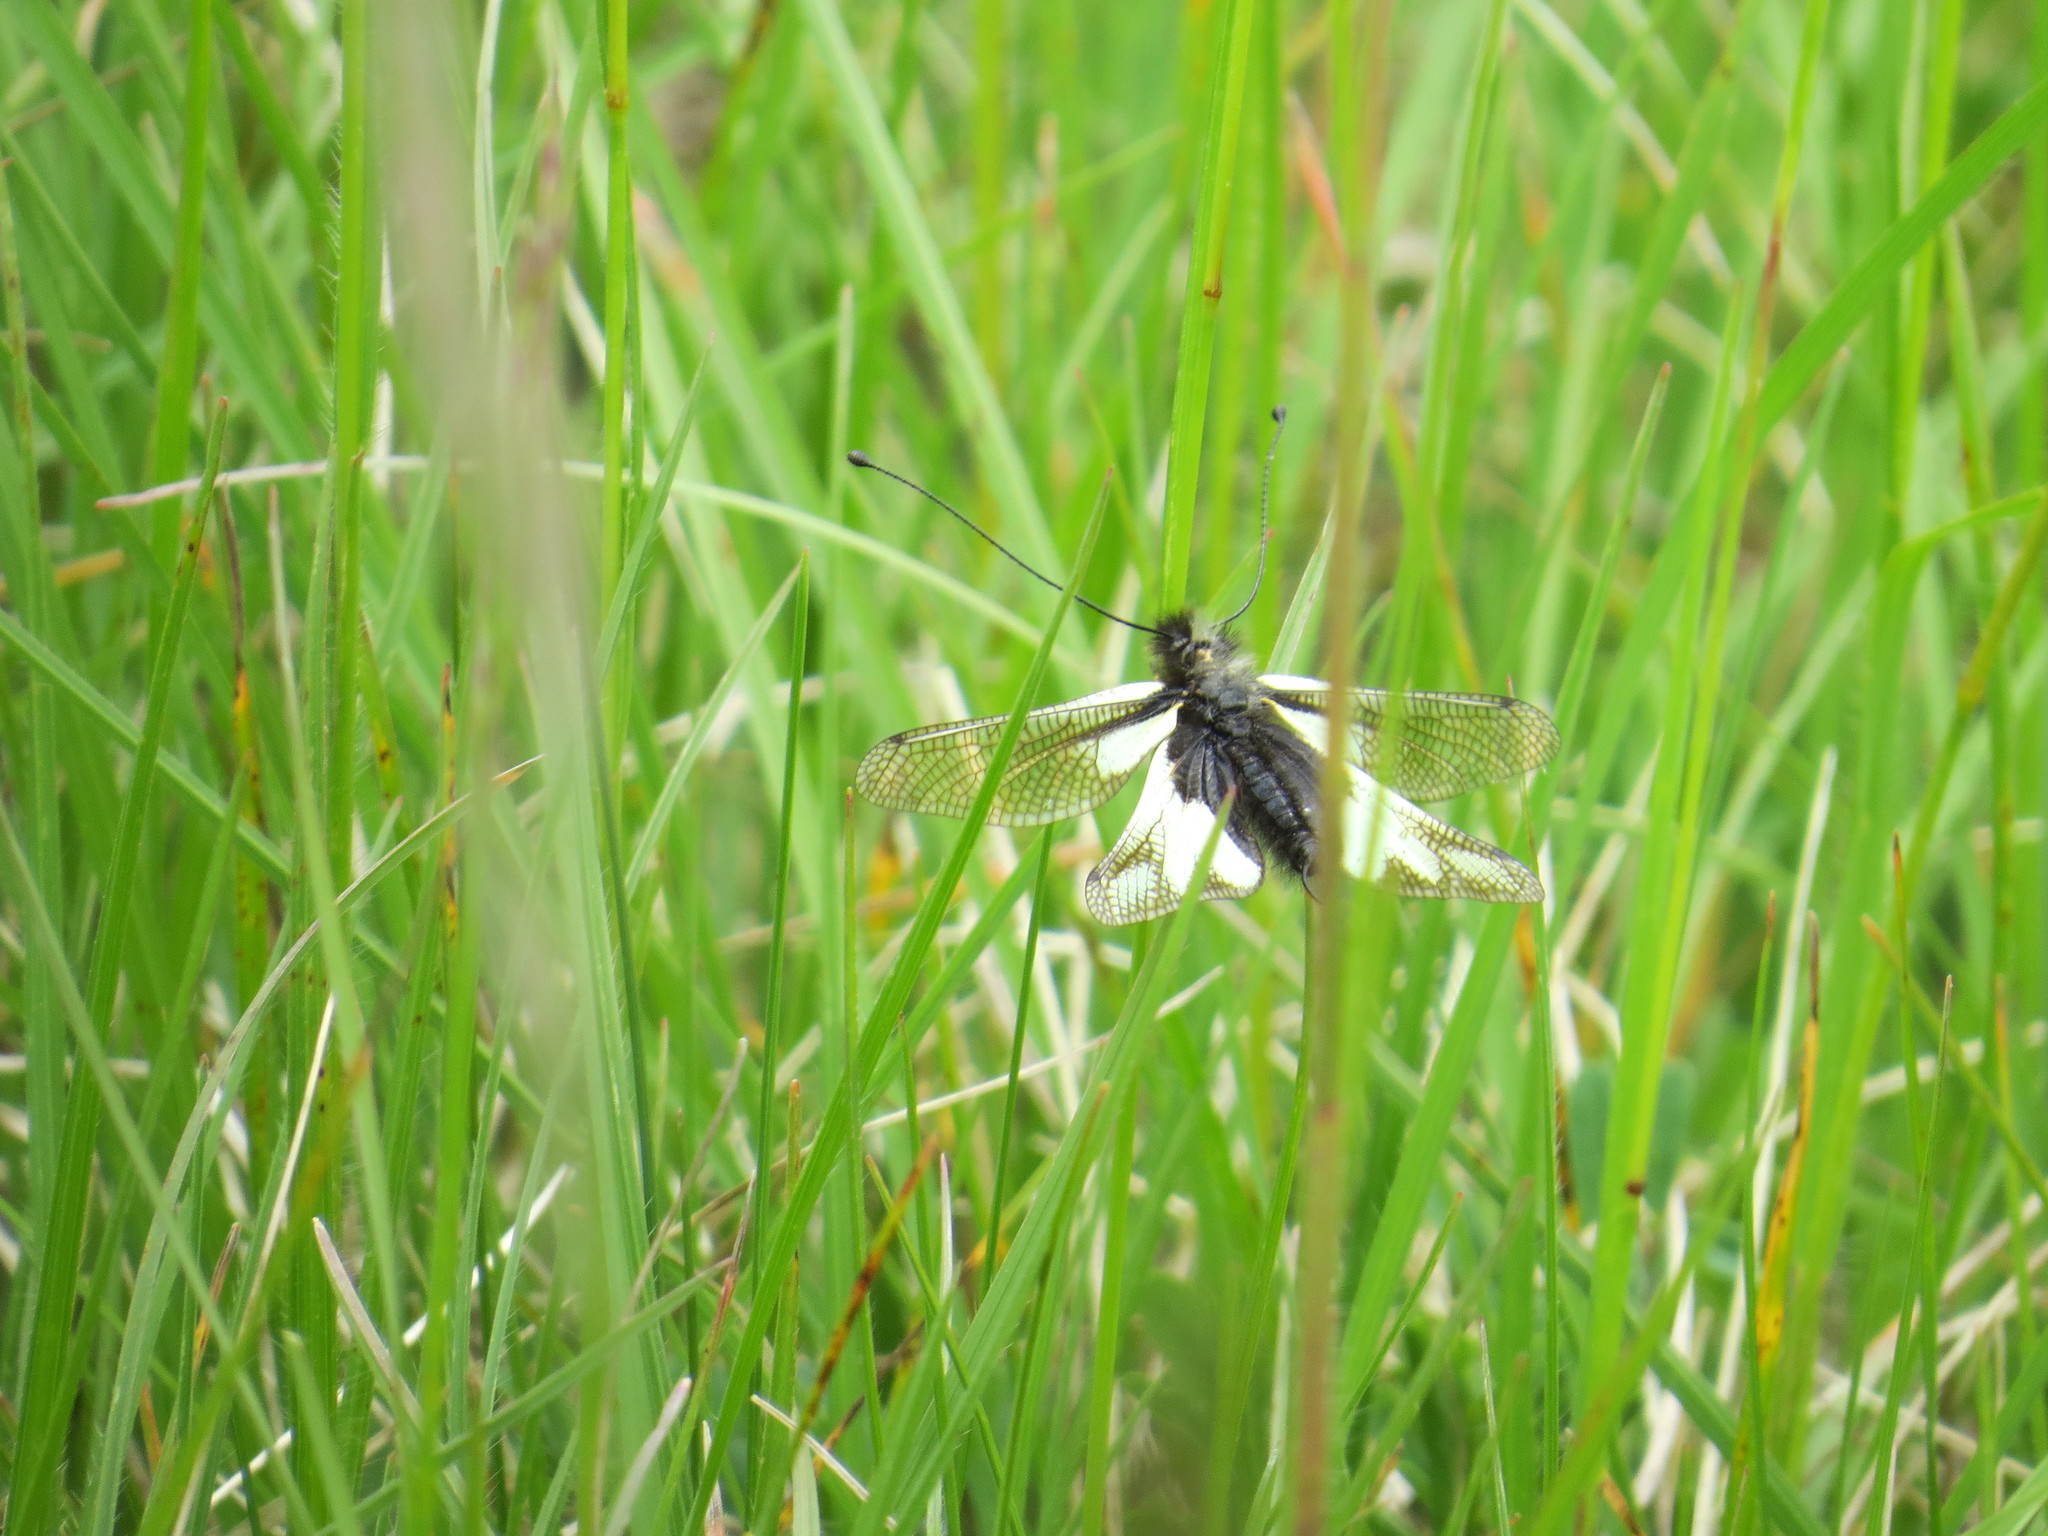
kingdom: Animalia
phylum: Arthropoda
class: Insecta
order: Neuroptera
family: Ascalaphidae
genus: Libelloides
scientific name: Libelloides coccajus
